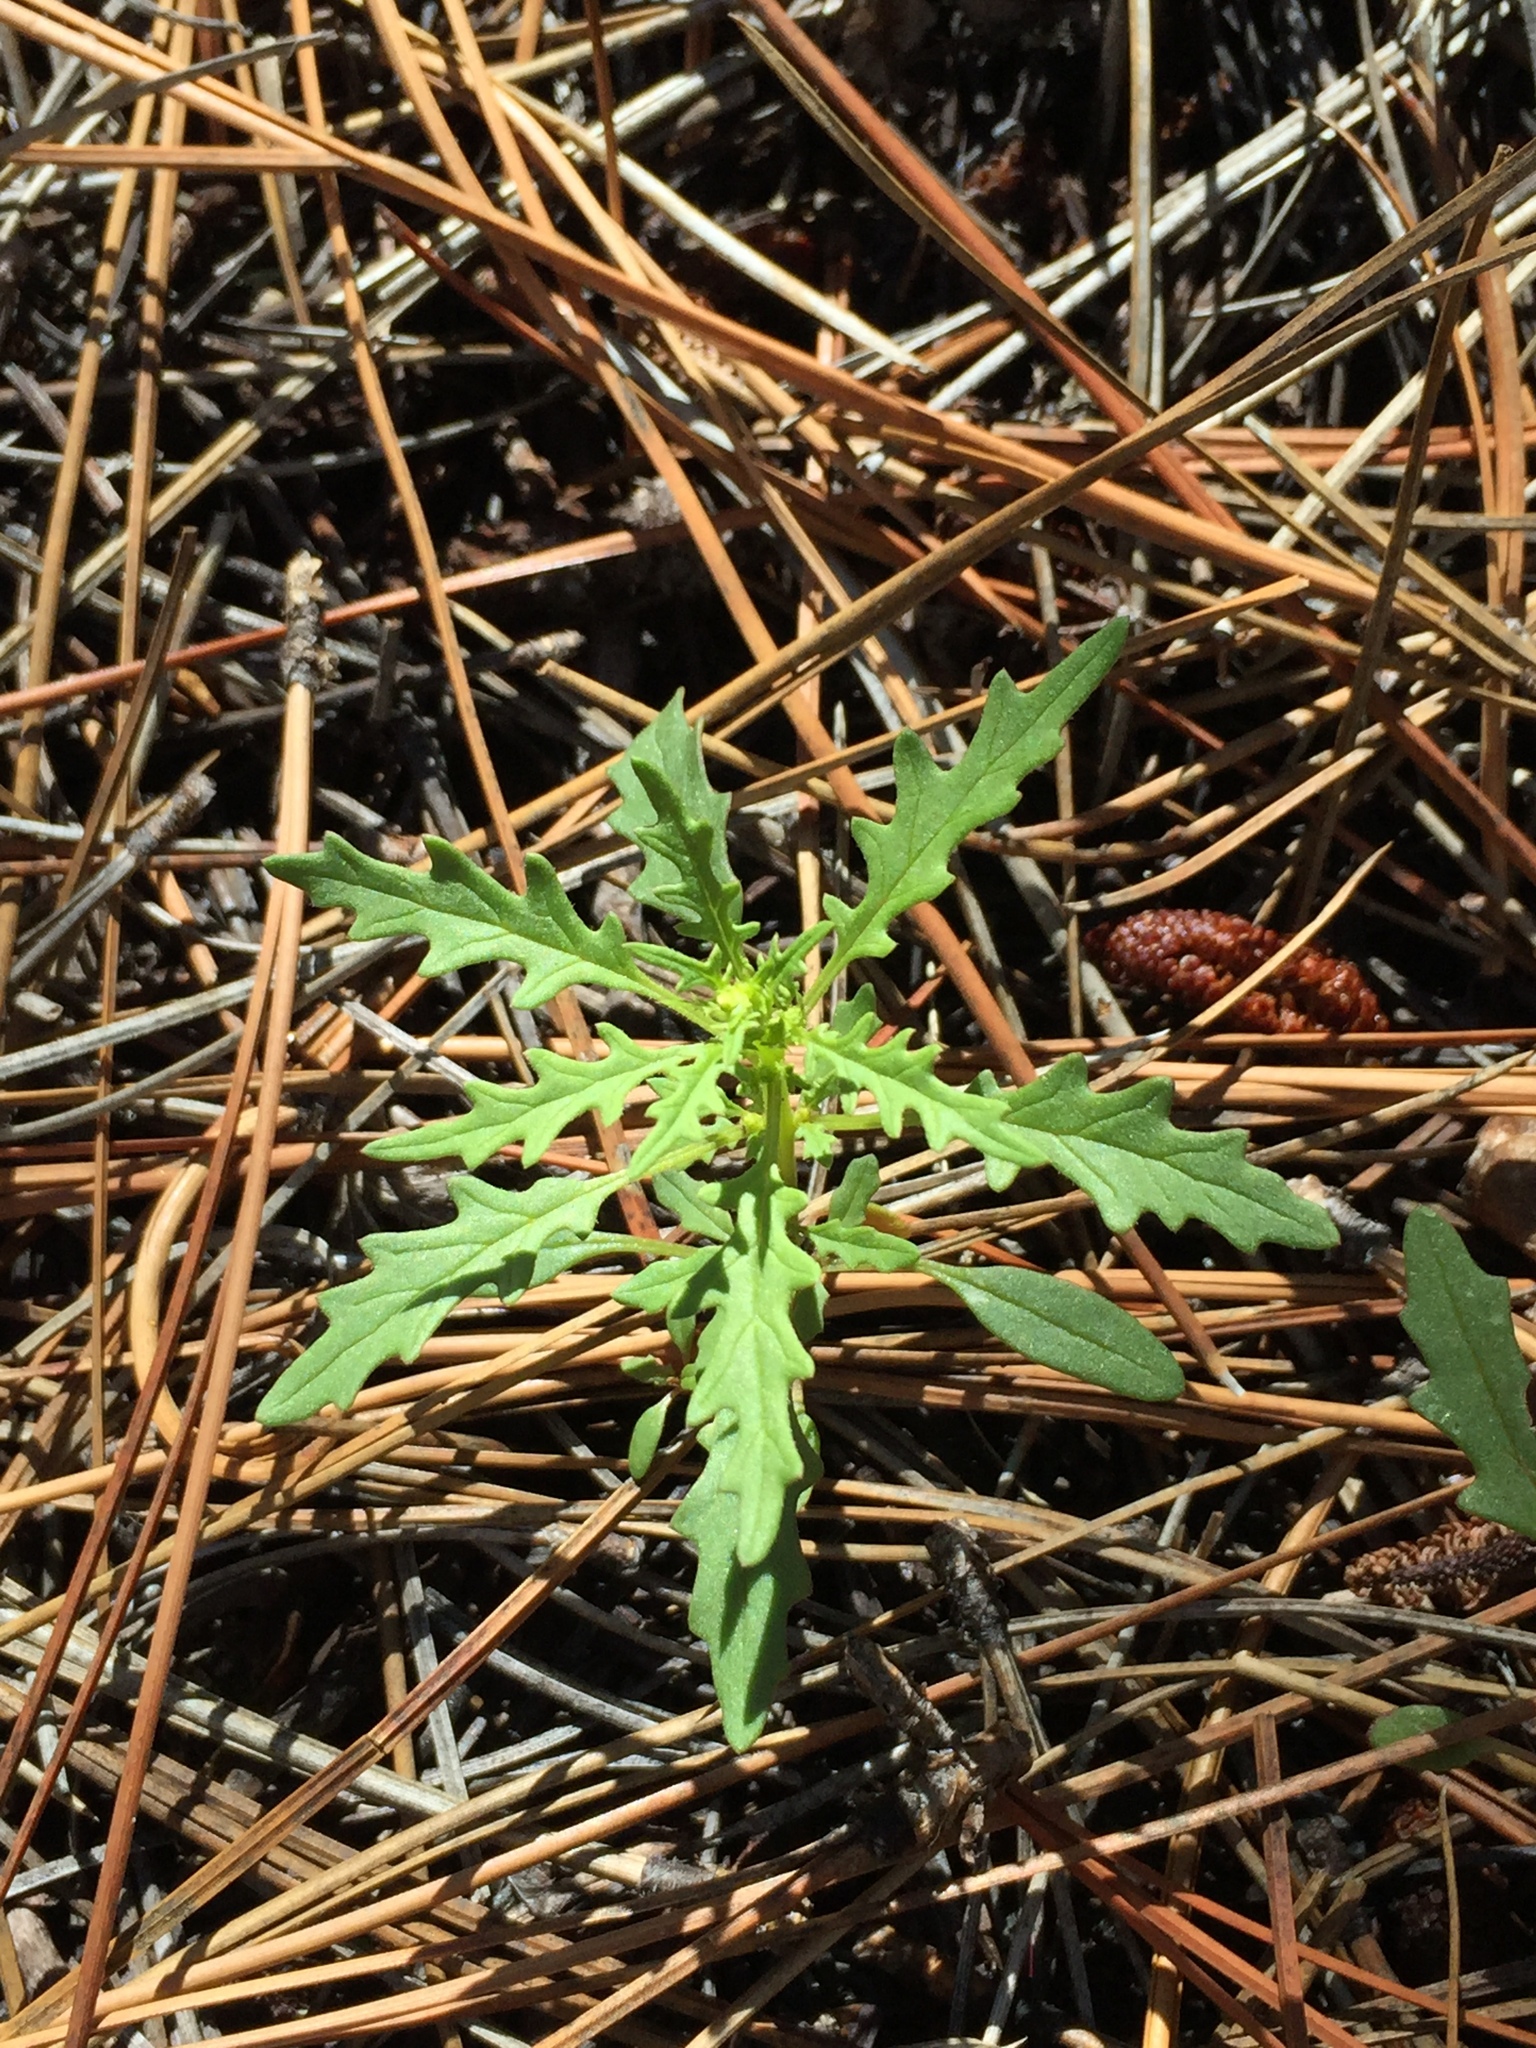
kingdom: Plantae
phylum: Tracheophyta
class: Magnoliopsida
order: Caryophyllales
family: Amaranthaceae
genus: Dysphania
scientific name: Dysphania incisa
